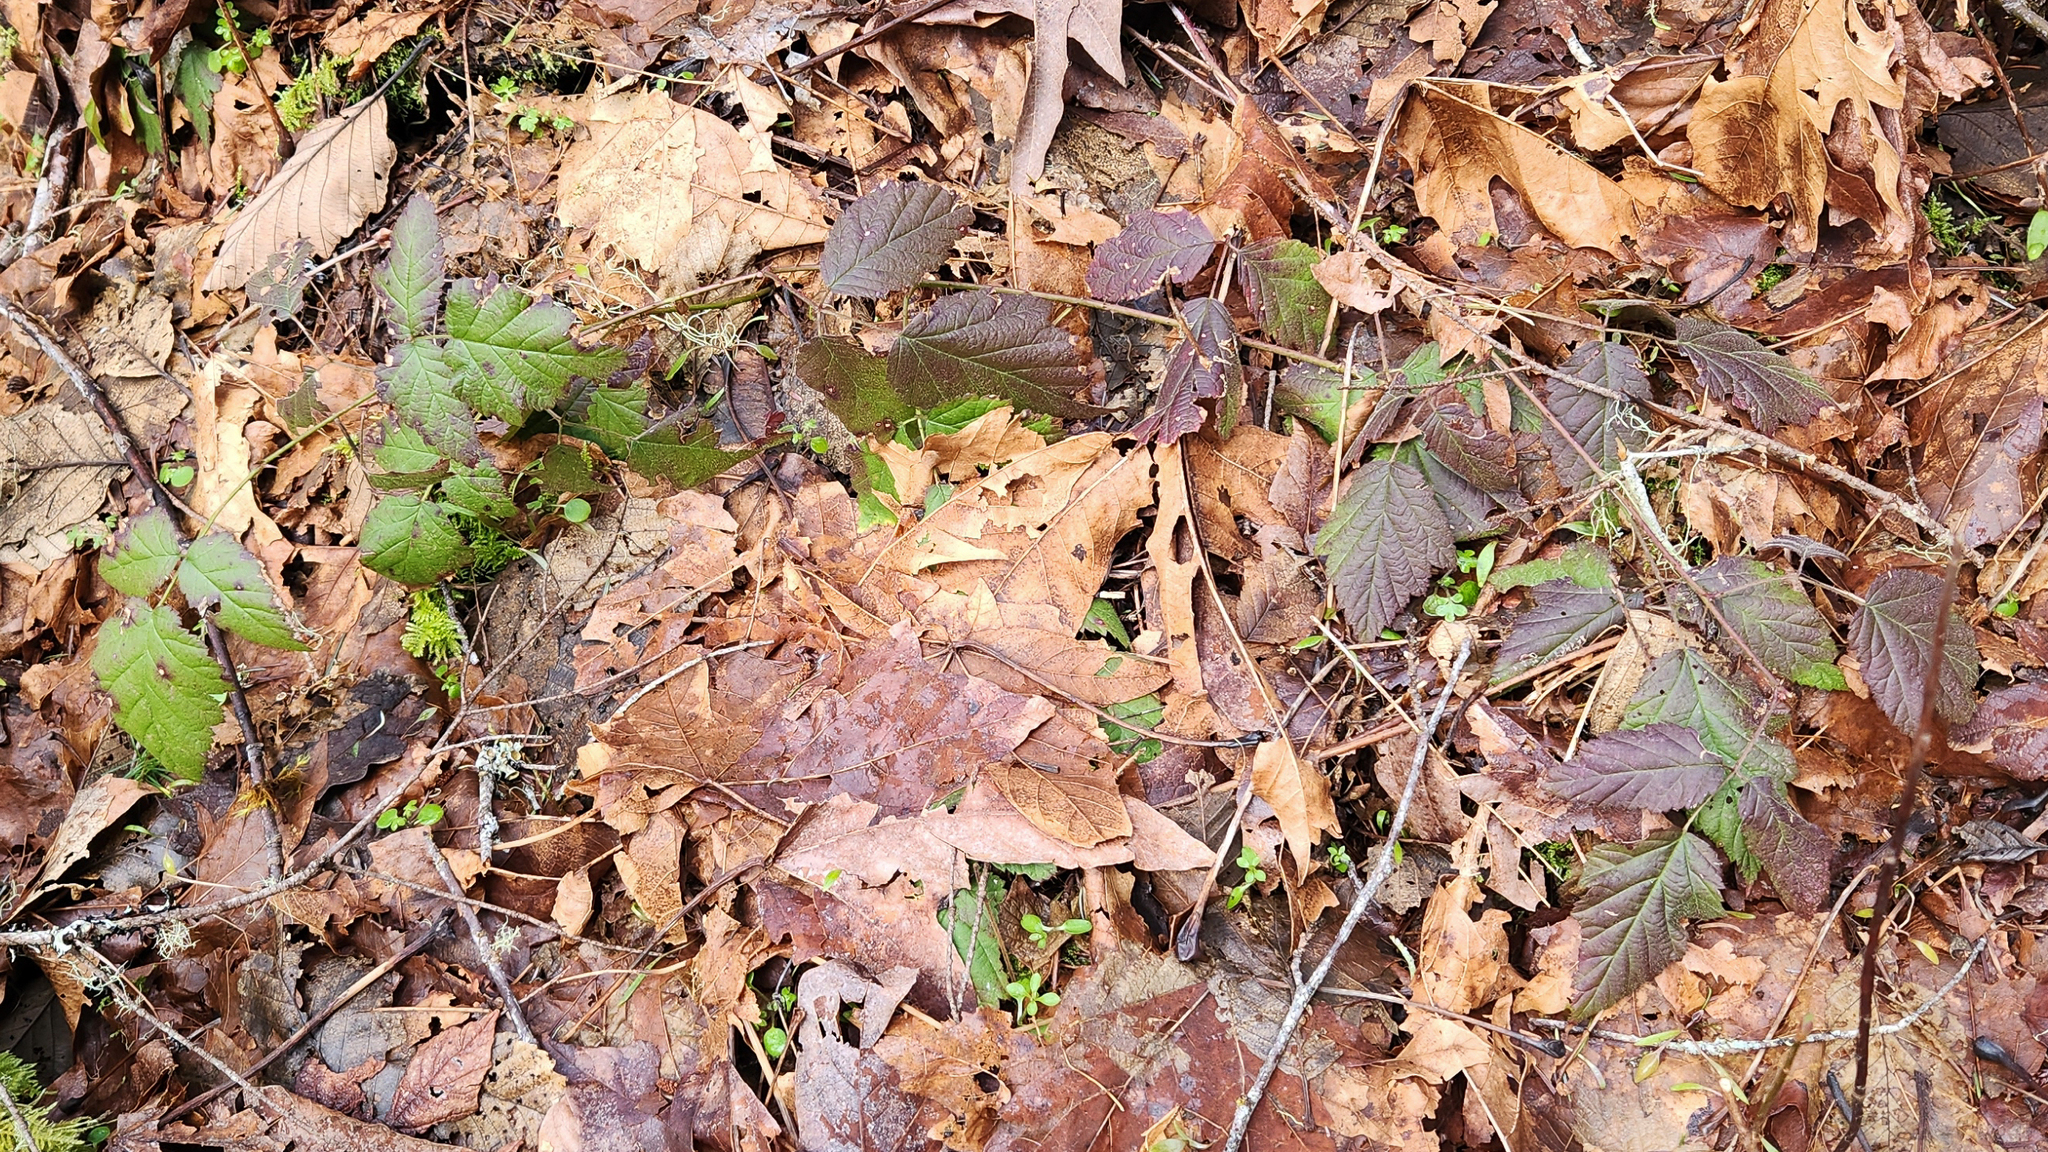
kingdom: Plantae
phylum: Tracheophyta
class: Magnoliopsida
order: Rosales
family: Rosaceae
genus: Rubus
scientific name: Rubus ursinus
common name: Pacific blackberry
